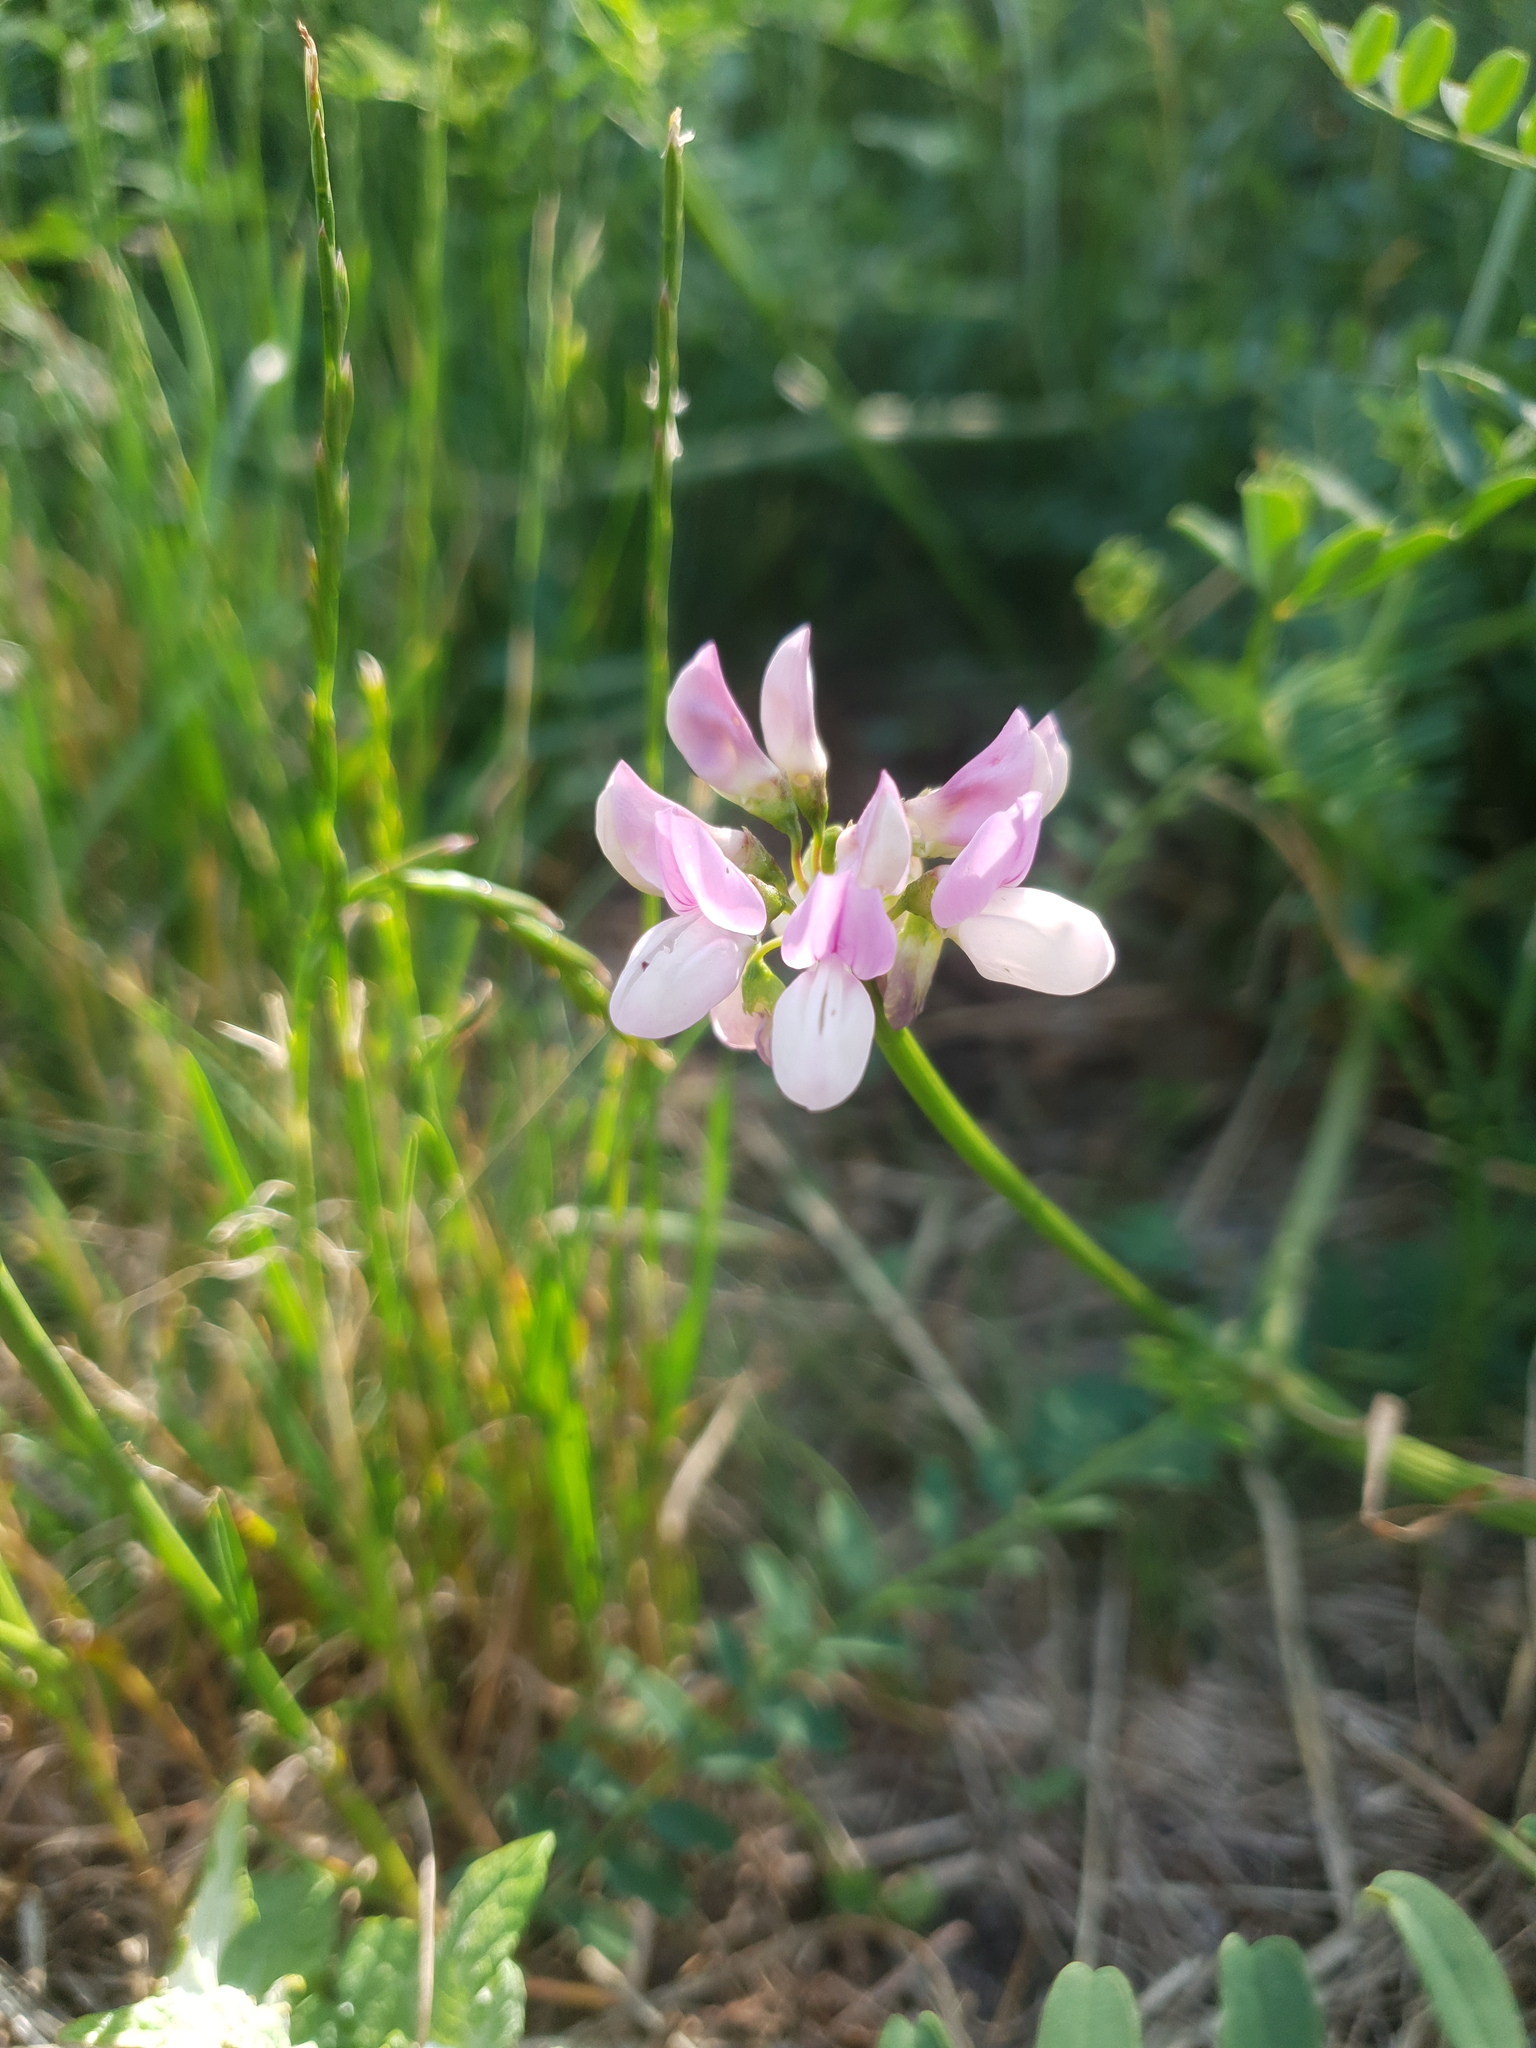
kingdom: Plantae
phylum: Tracheophyta
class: Magnoliopsida
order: Fabales
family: Fabaceae
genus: Coronilla
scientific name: Coronilla varia
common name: Crownvetch
